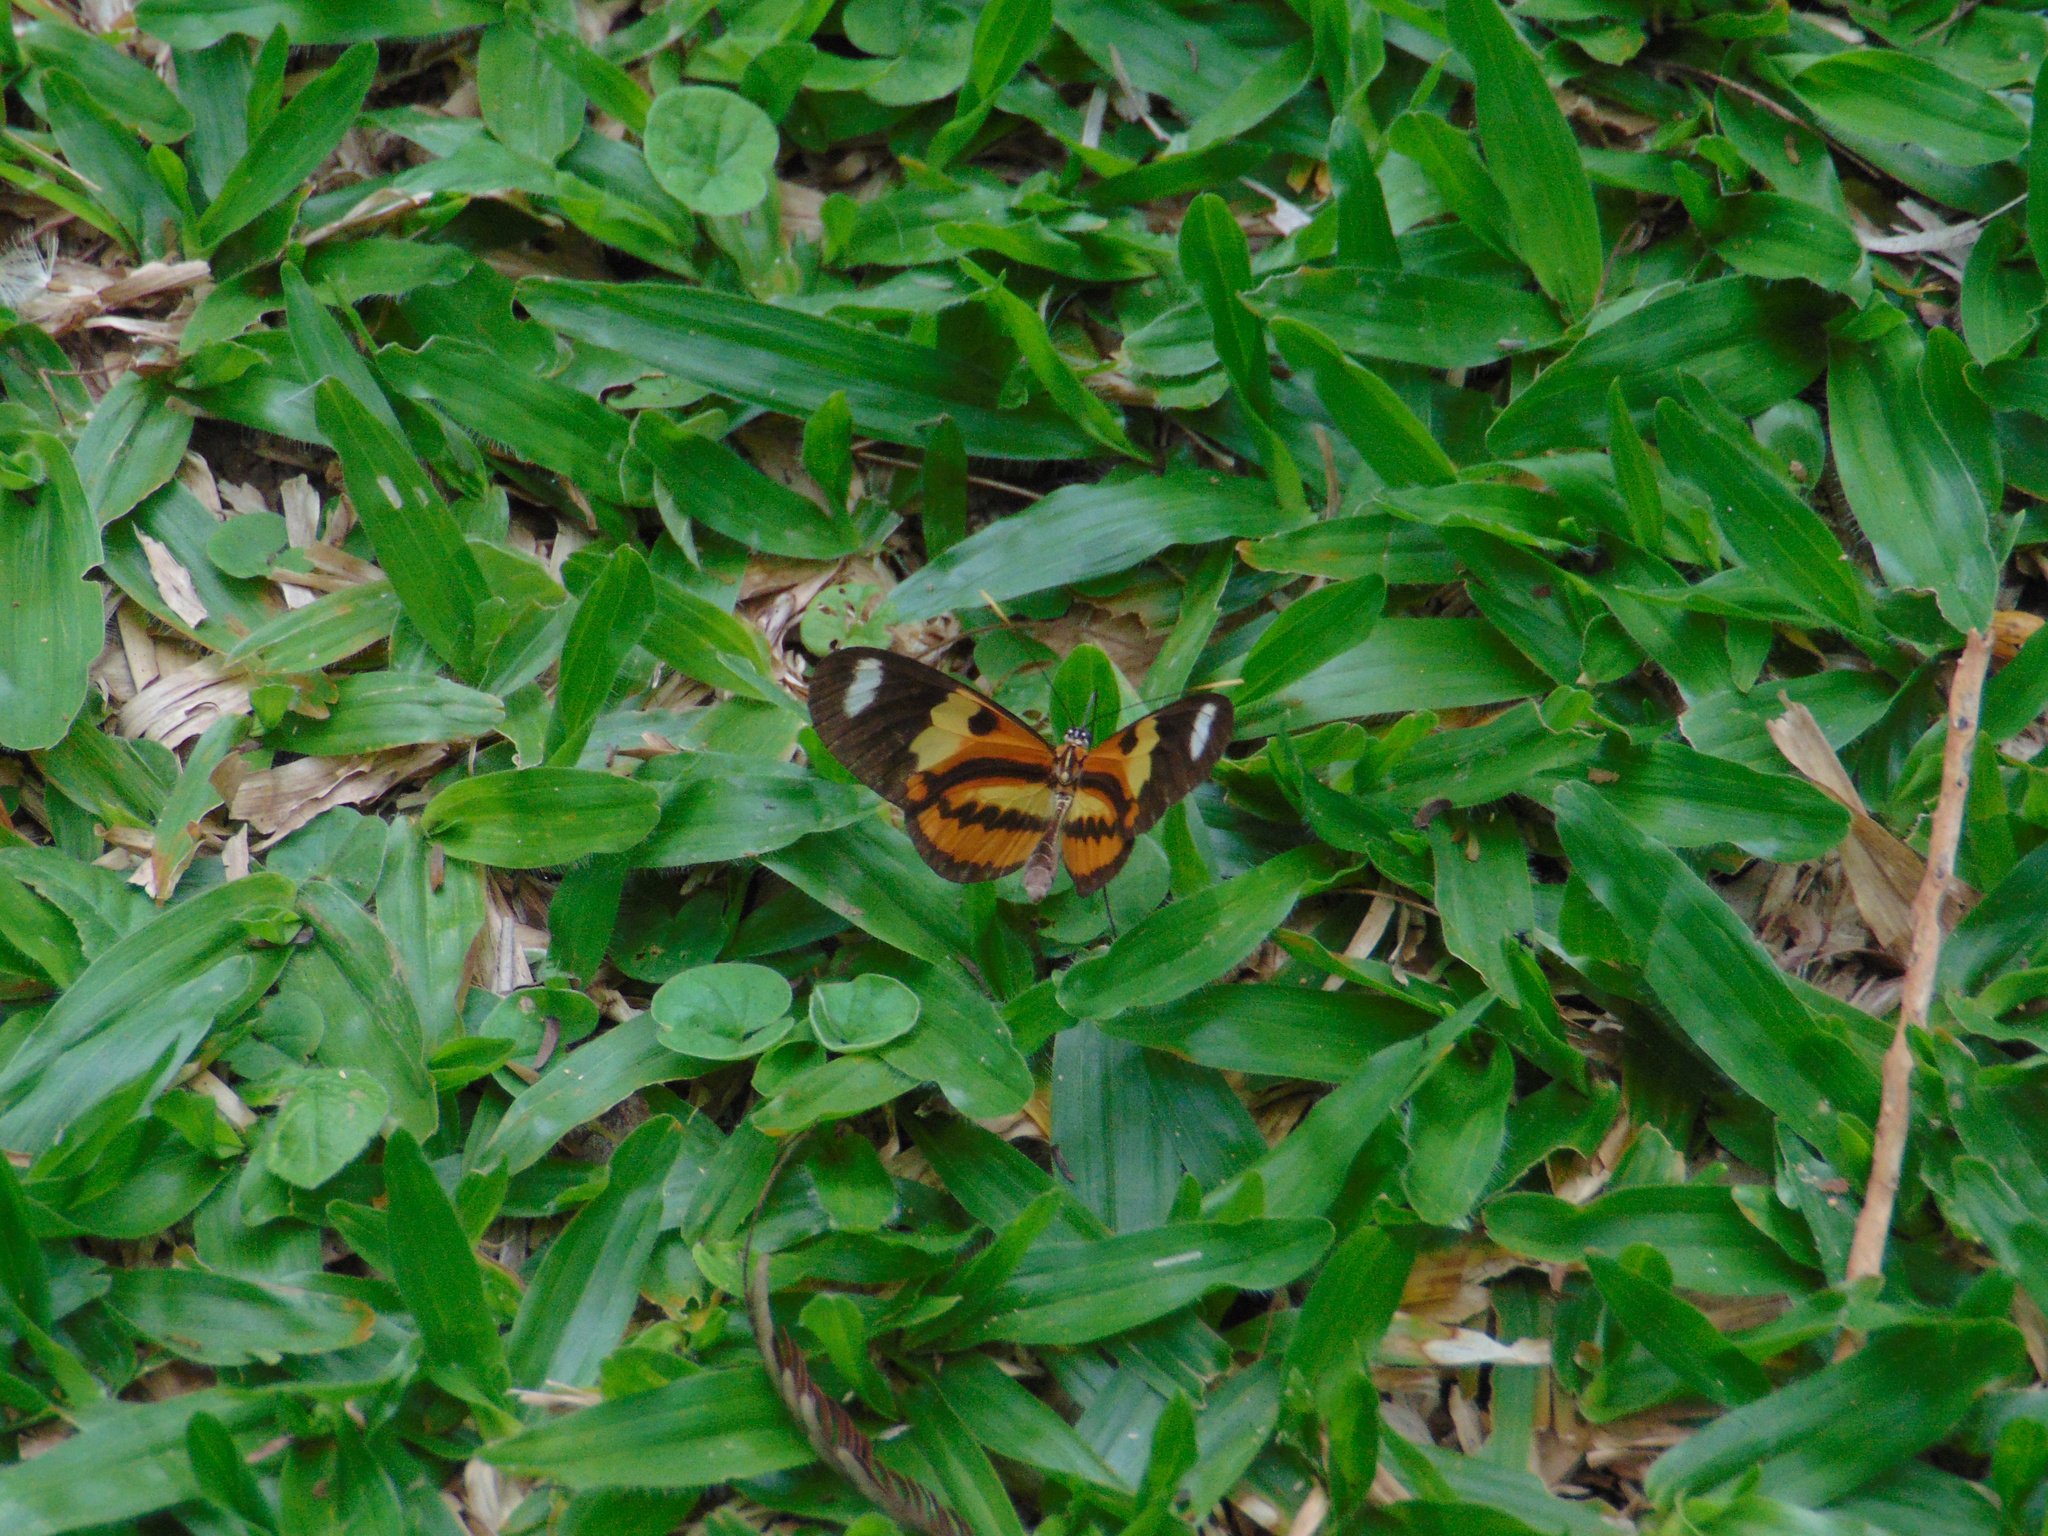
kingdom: Animalia
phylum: Arthropoda
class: Insecta
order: Lepidoptera
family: Nymphalidae
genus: Mechanitis
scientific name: Mechanitis lysimnia
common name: Lysimnia tigerwing
